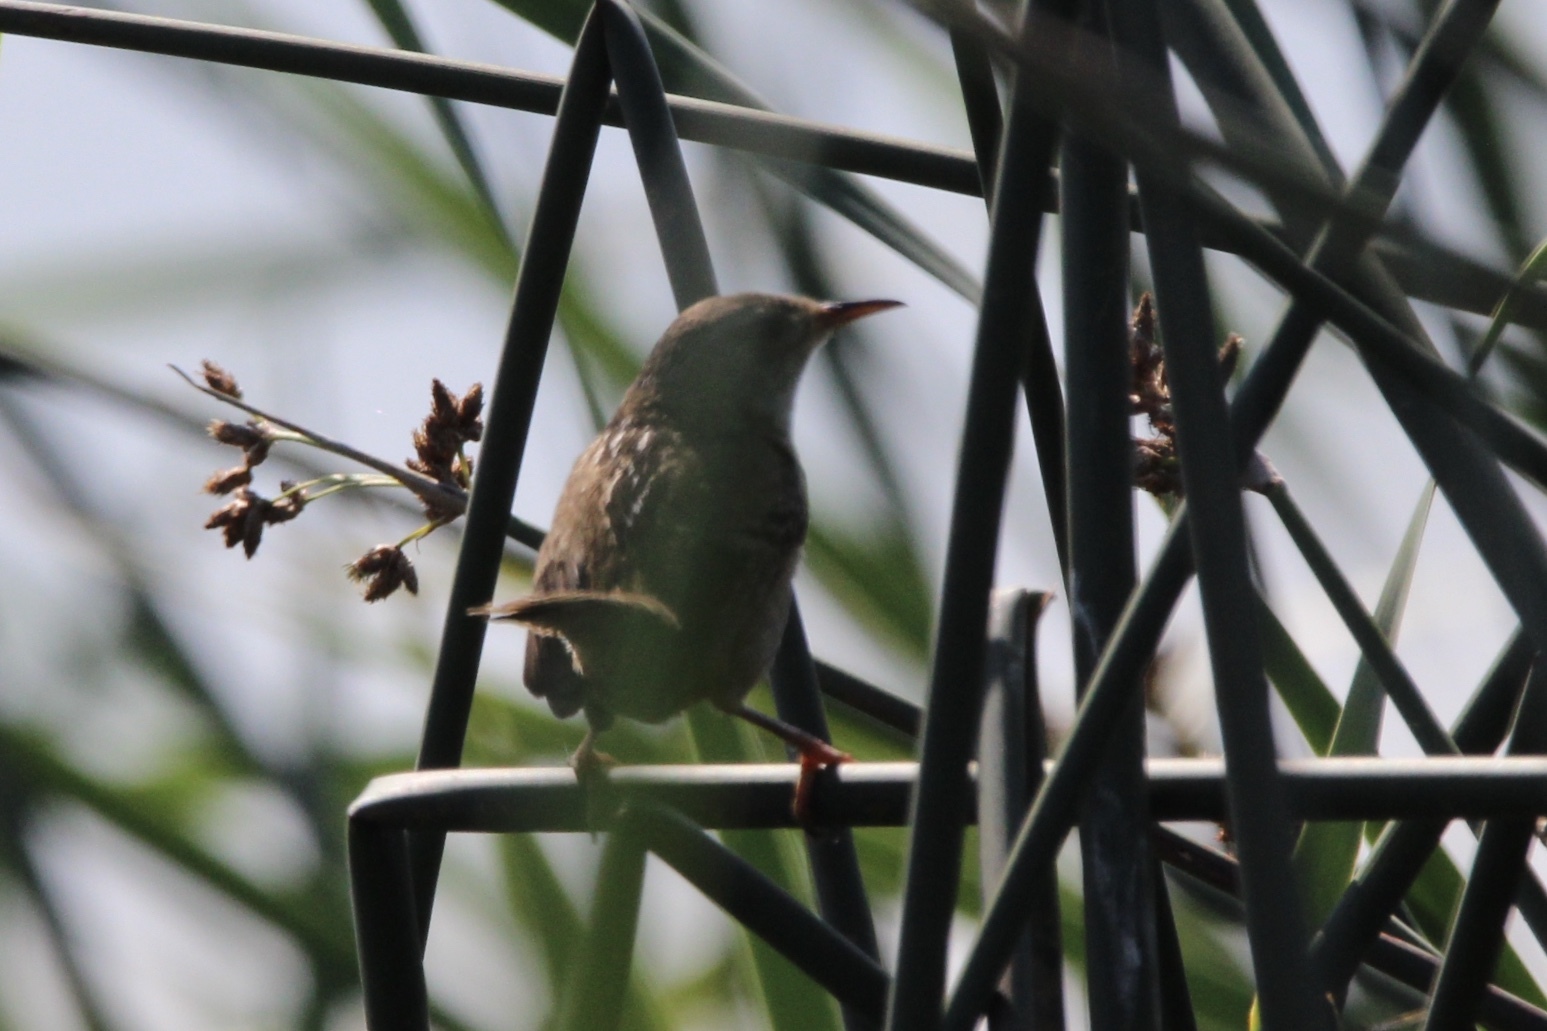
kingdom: Animalia
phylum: Chordata
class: Aves
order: Passeriformes
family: Troglodytidae
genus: Cistothorus
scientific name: Cistothorus palustris
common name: Marsh wren
